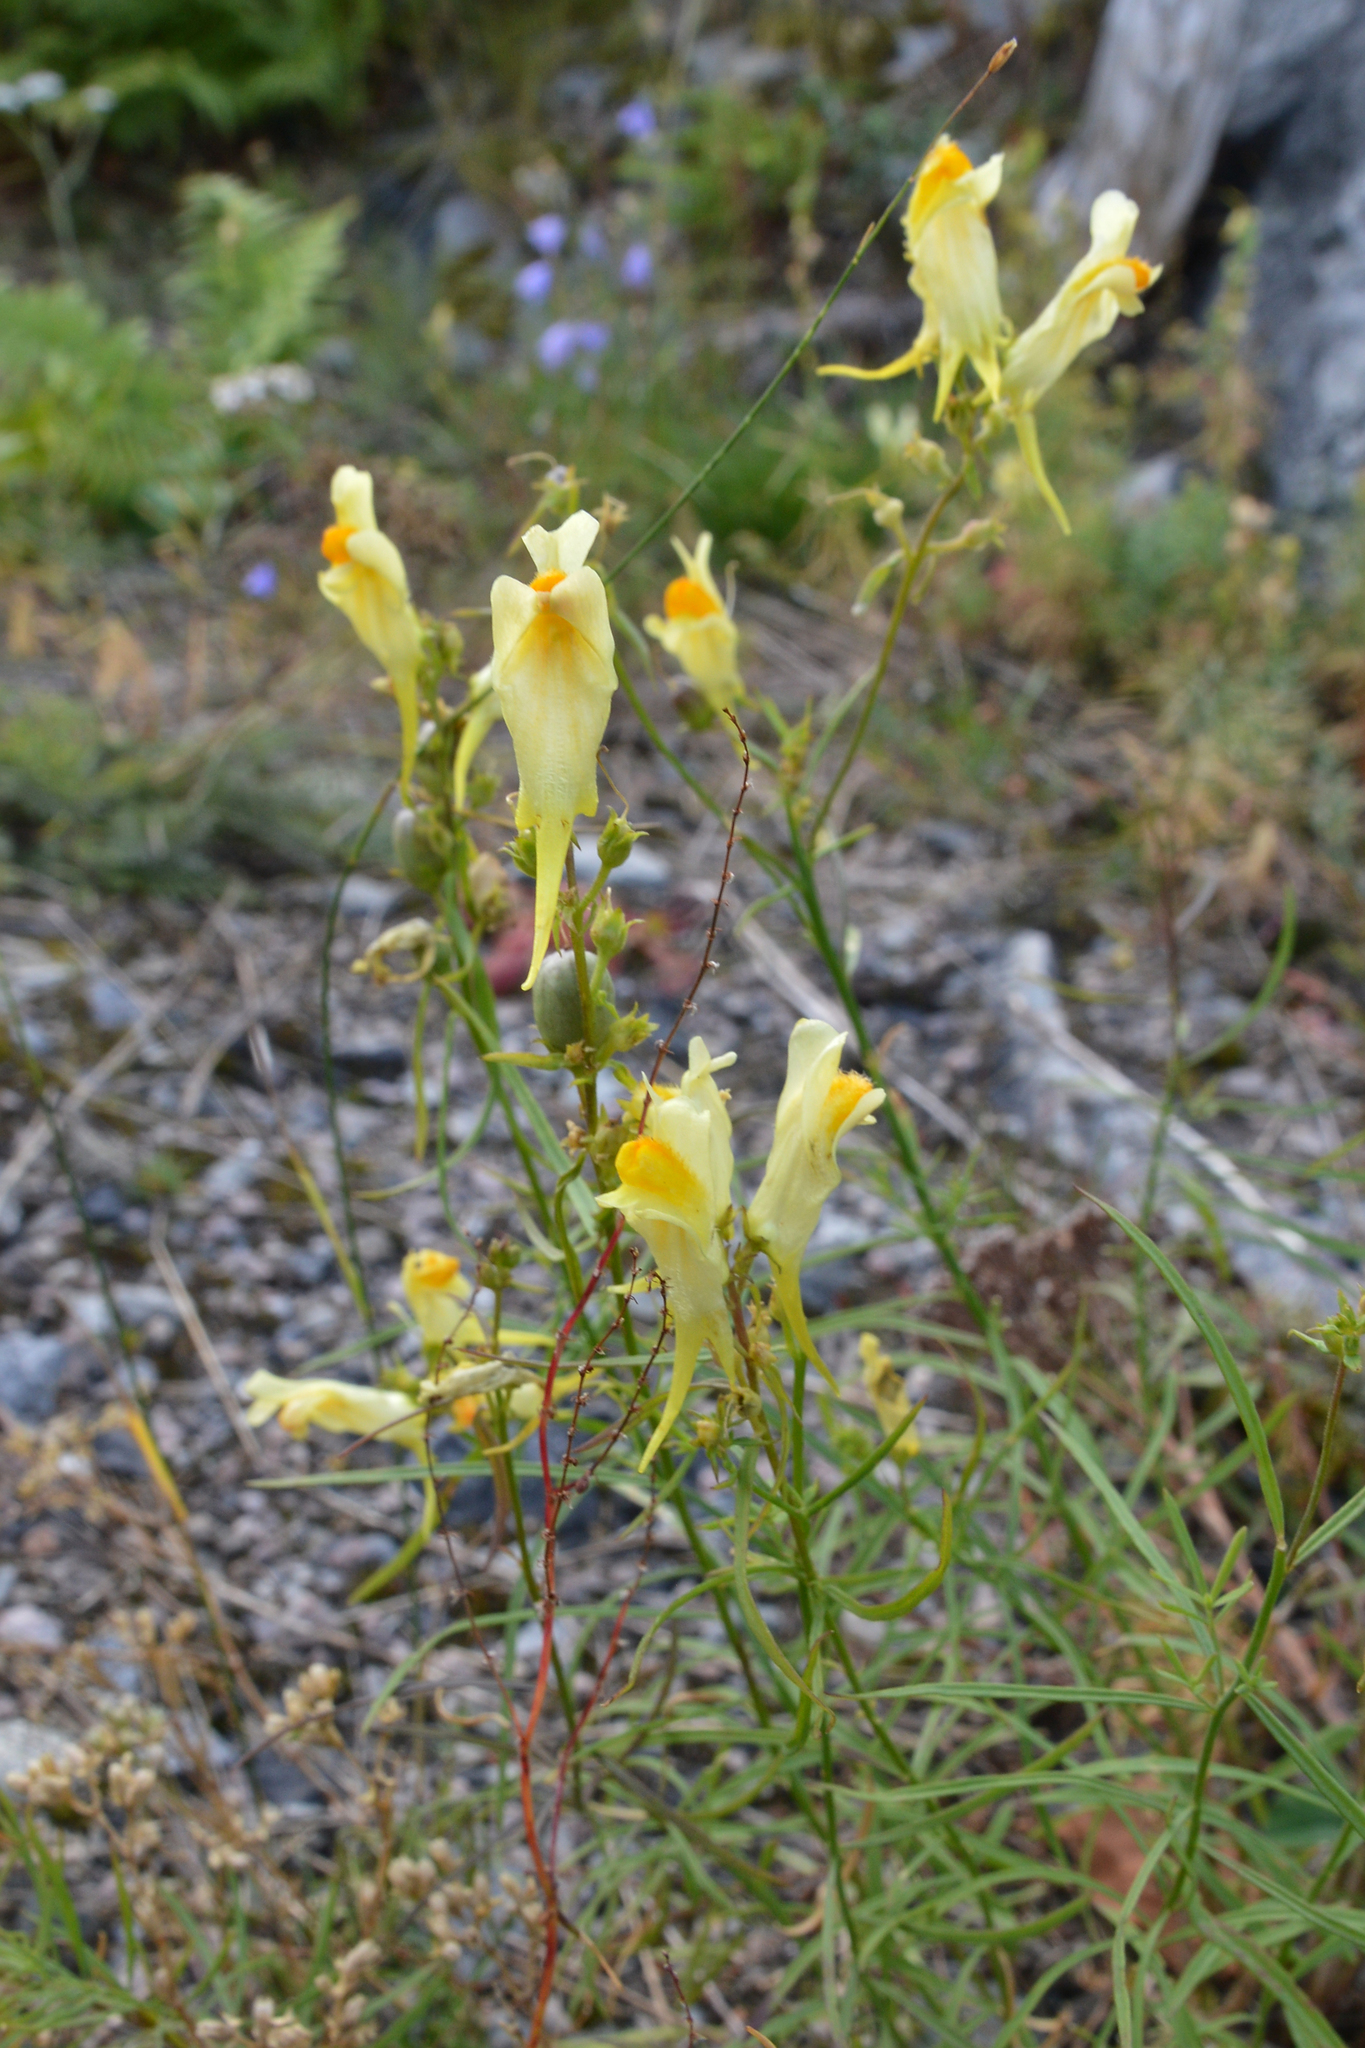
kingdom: Plantae
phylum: Tracheophyta
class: Magnoliopsida
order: Lamiales
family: Plantaginaceae
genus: Linaria
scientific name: Linaria vulgaris
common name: Butter and eggs
